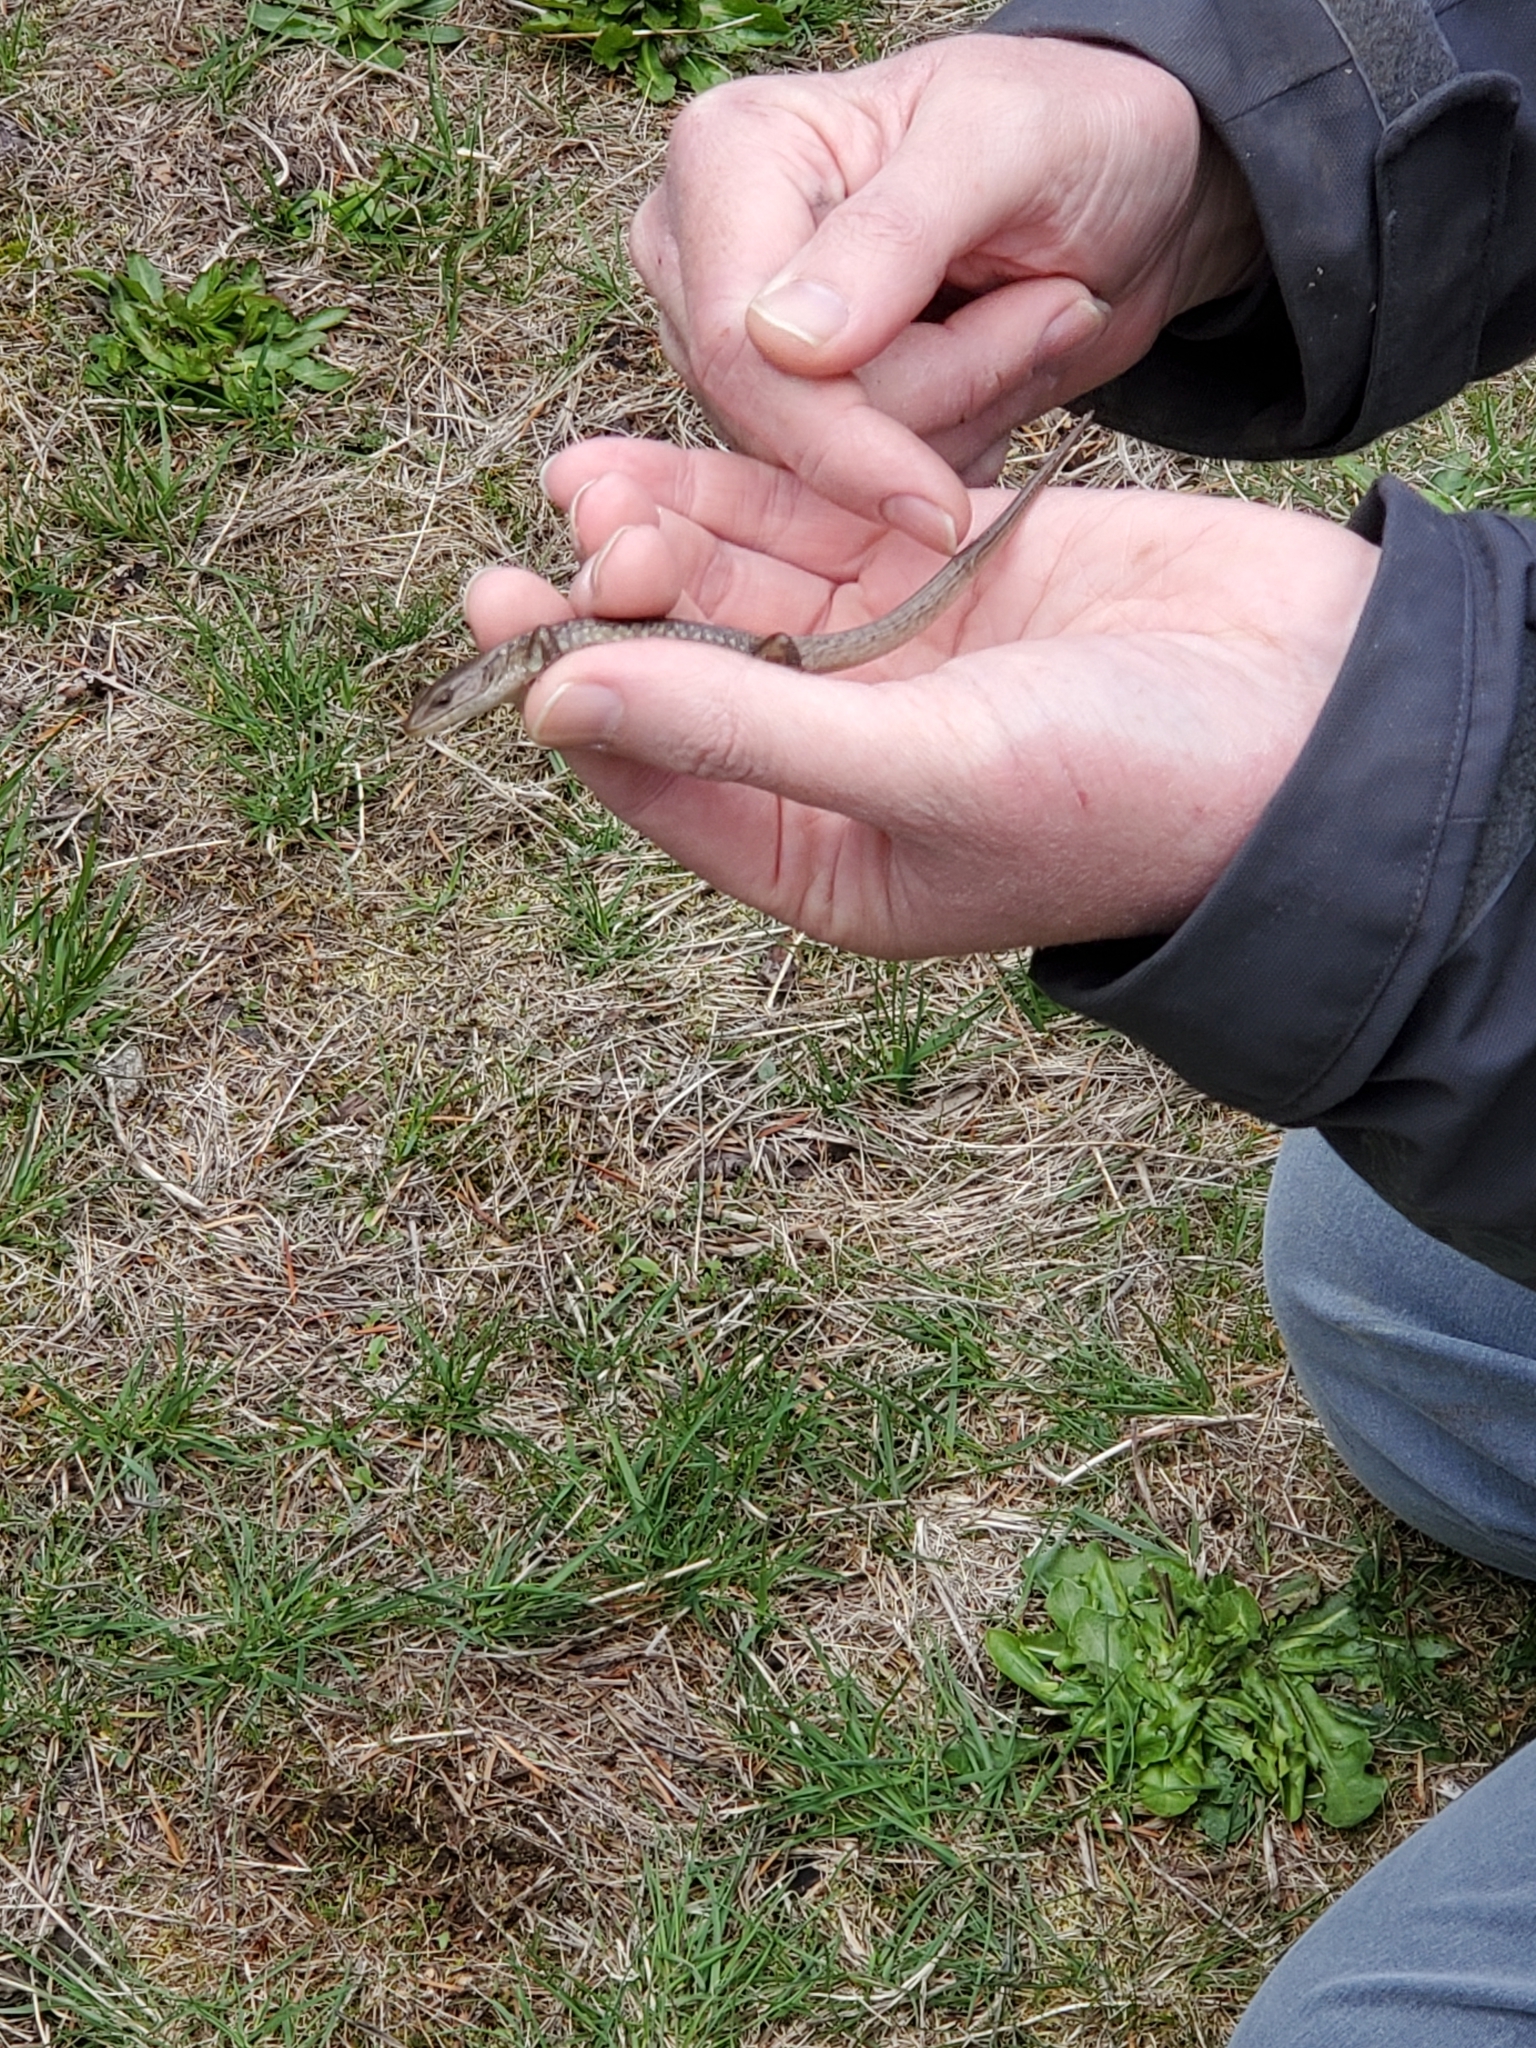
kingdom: Animalia
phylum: Chordata
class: Squamata
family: Anguidae
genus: Elgaria
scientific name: Elgaria coerulea
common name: Northern alligator lizard
